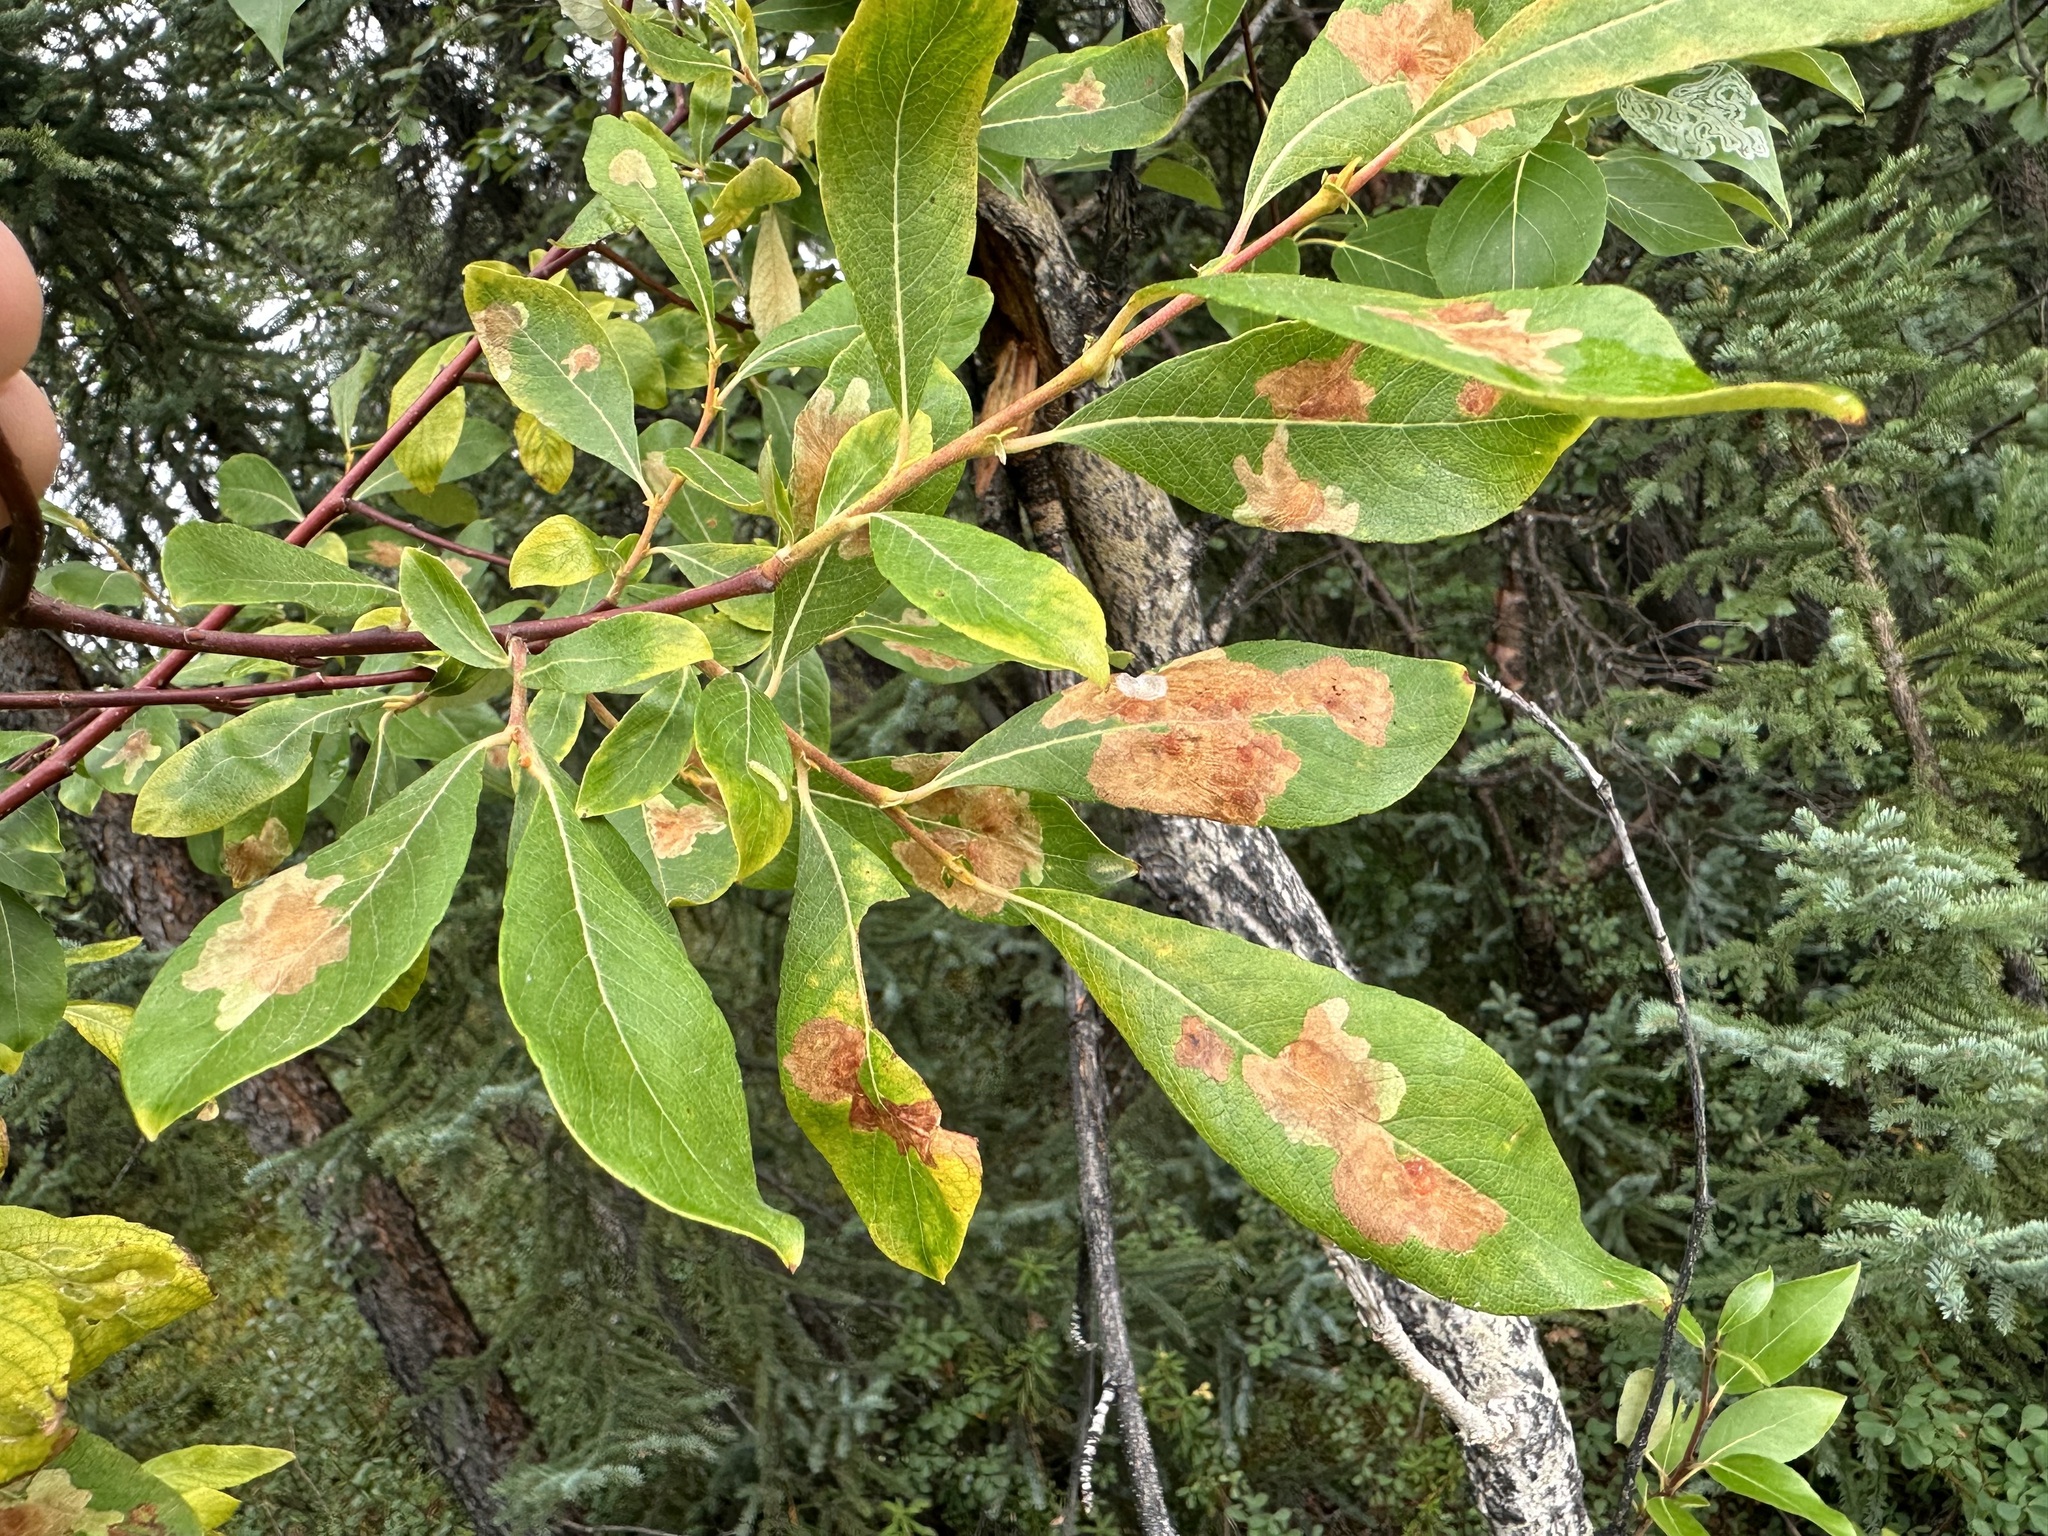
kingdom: Animalia
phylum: Arthropoda
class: Insecta
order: Lepidoptera
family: Gracillariidae
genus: Micrurapteryx
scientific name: Micrurapteryx salicifoliella
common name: Willow leaf blotch miner moth
